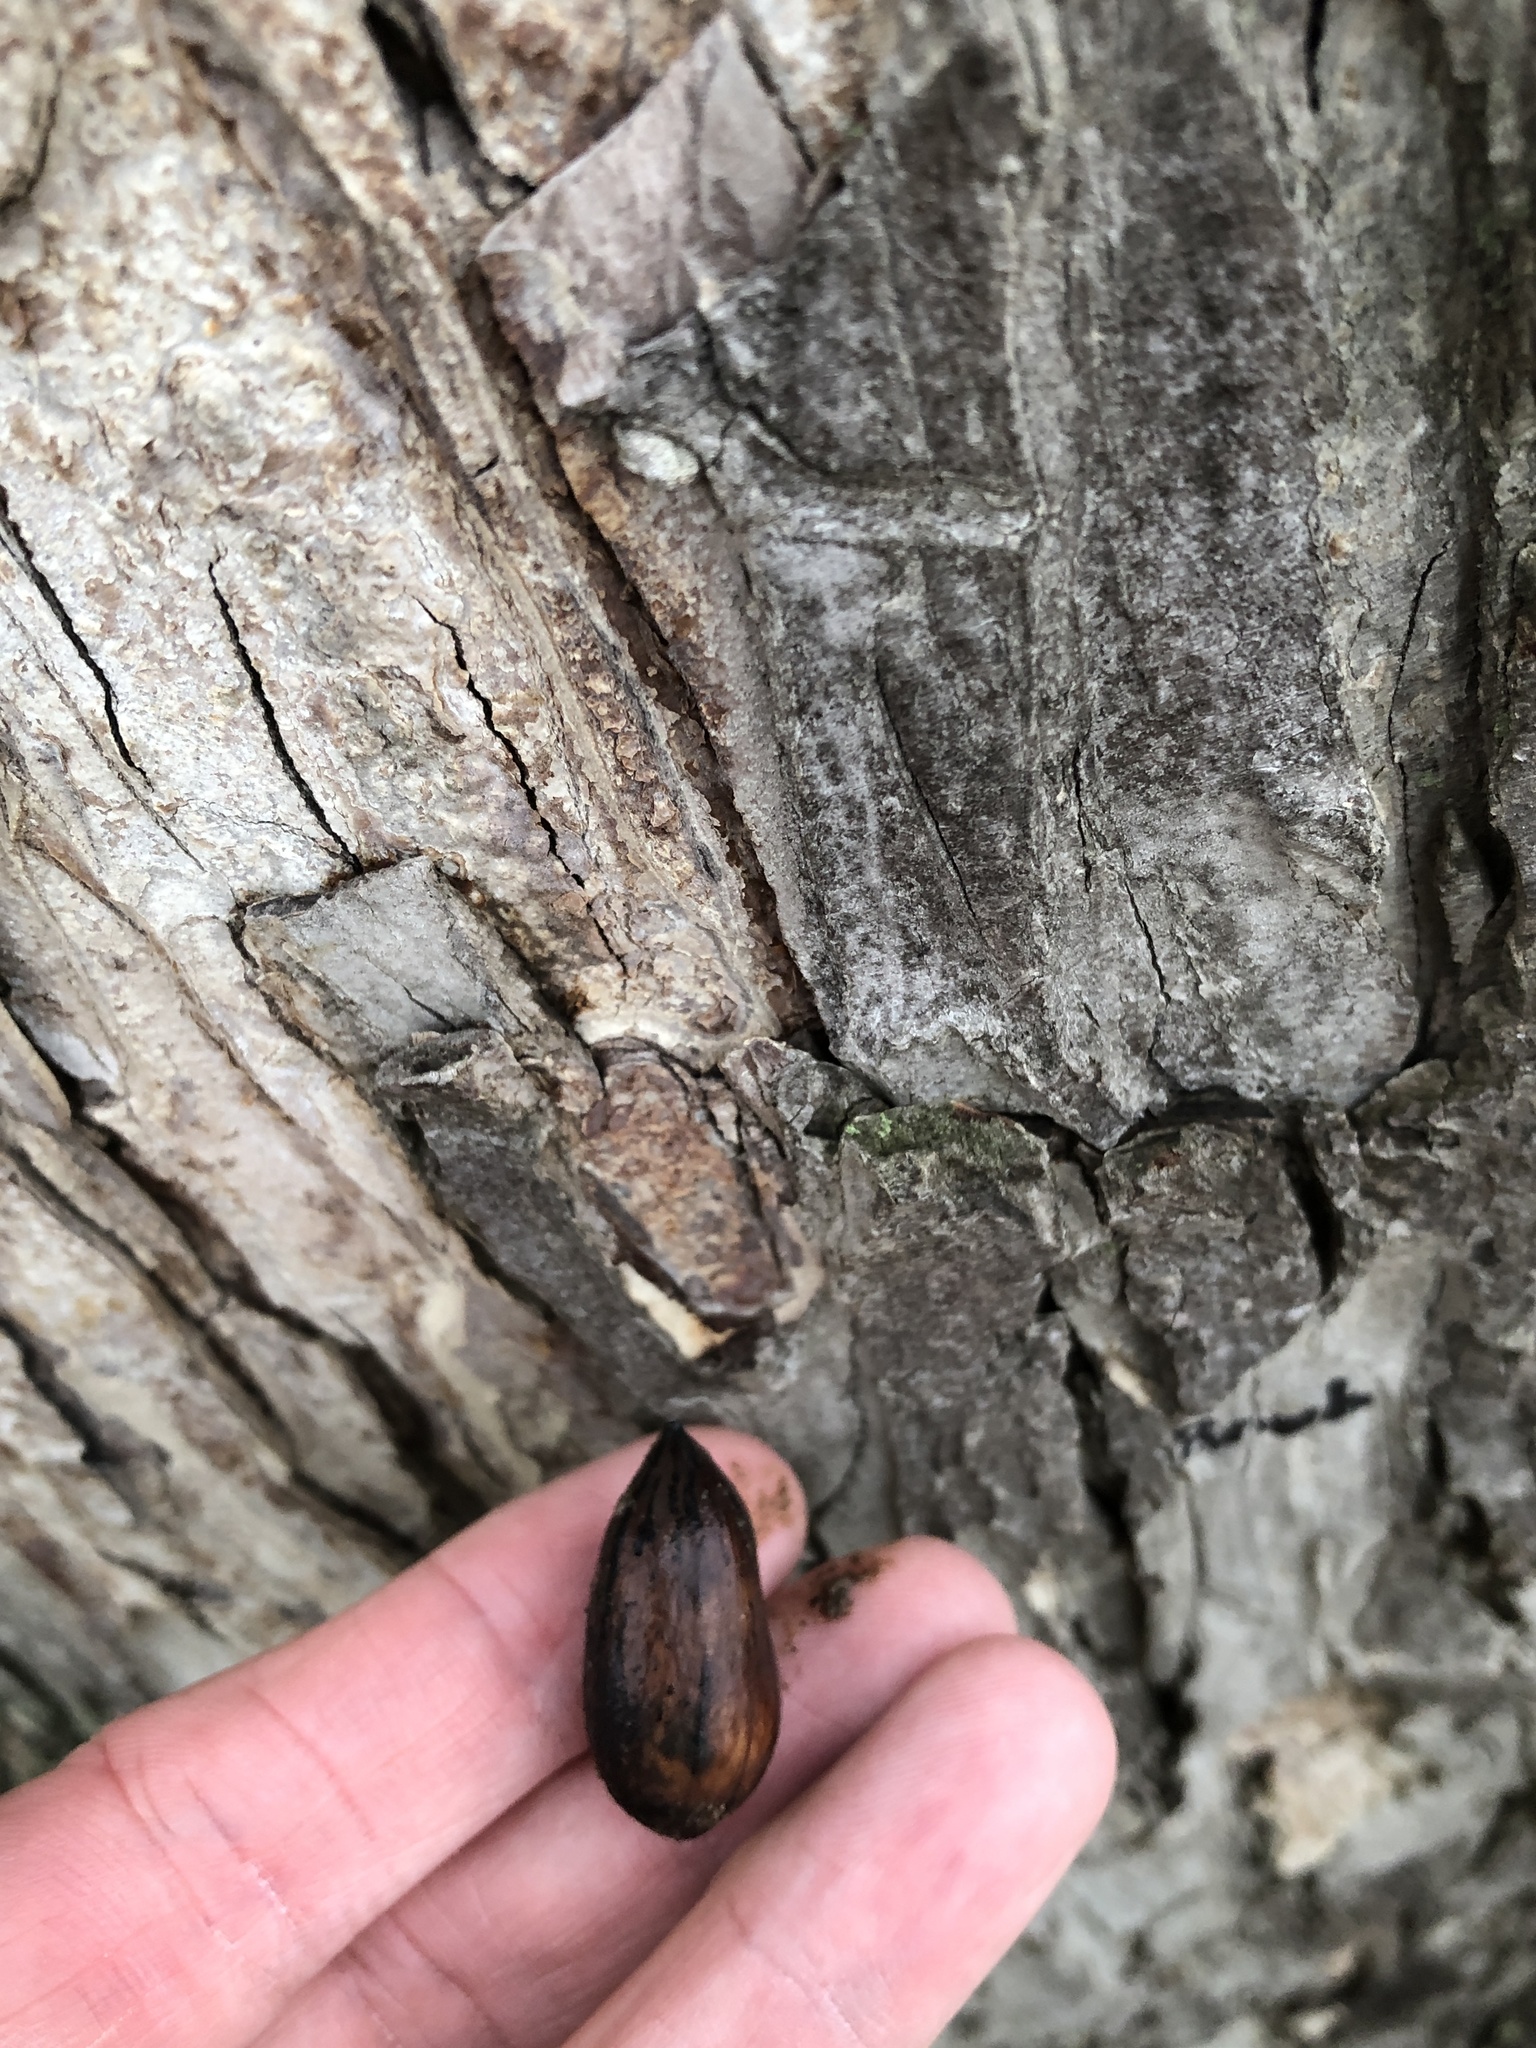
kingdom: Plantae
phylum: Tracheophyta
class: Magnoliopsida
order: Fagales
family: Juglandaceae
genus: Carya
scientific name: Carya illinoinensis
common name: Pecan
